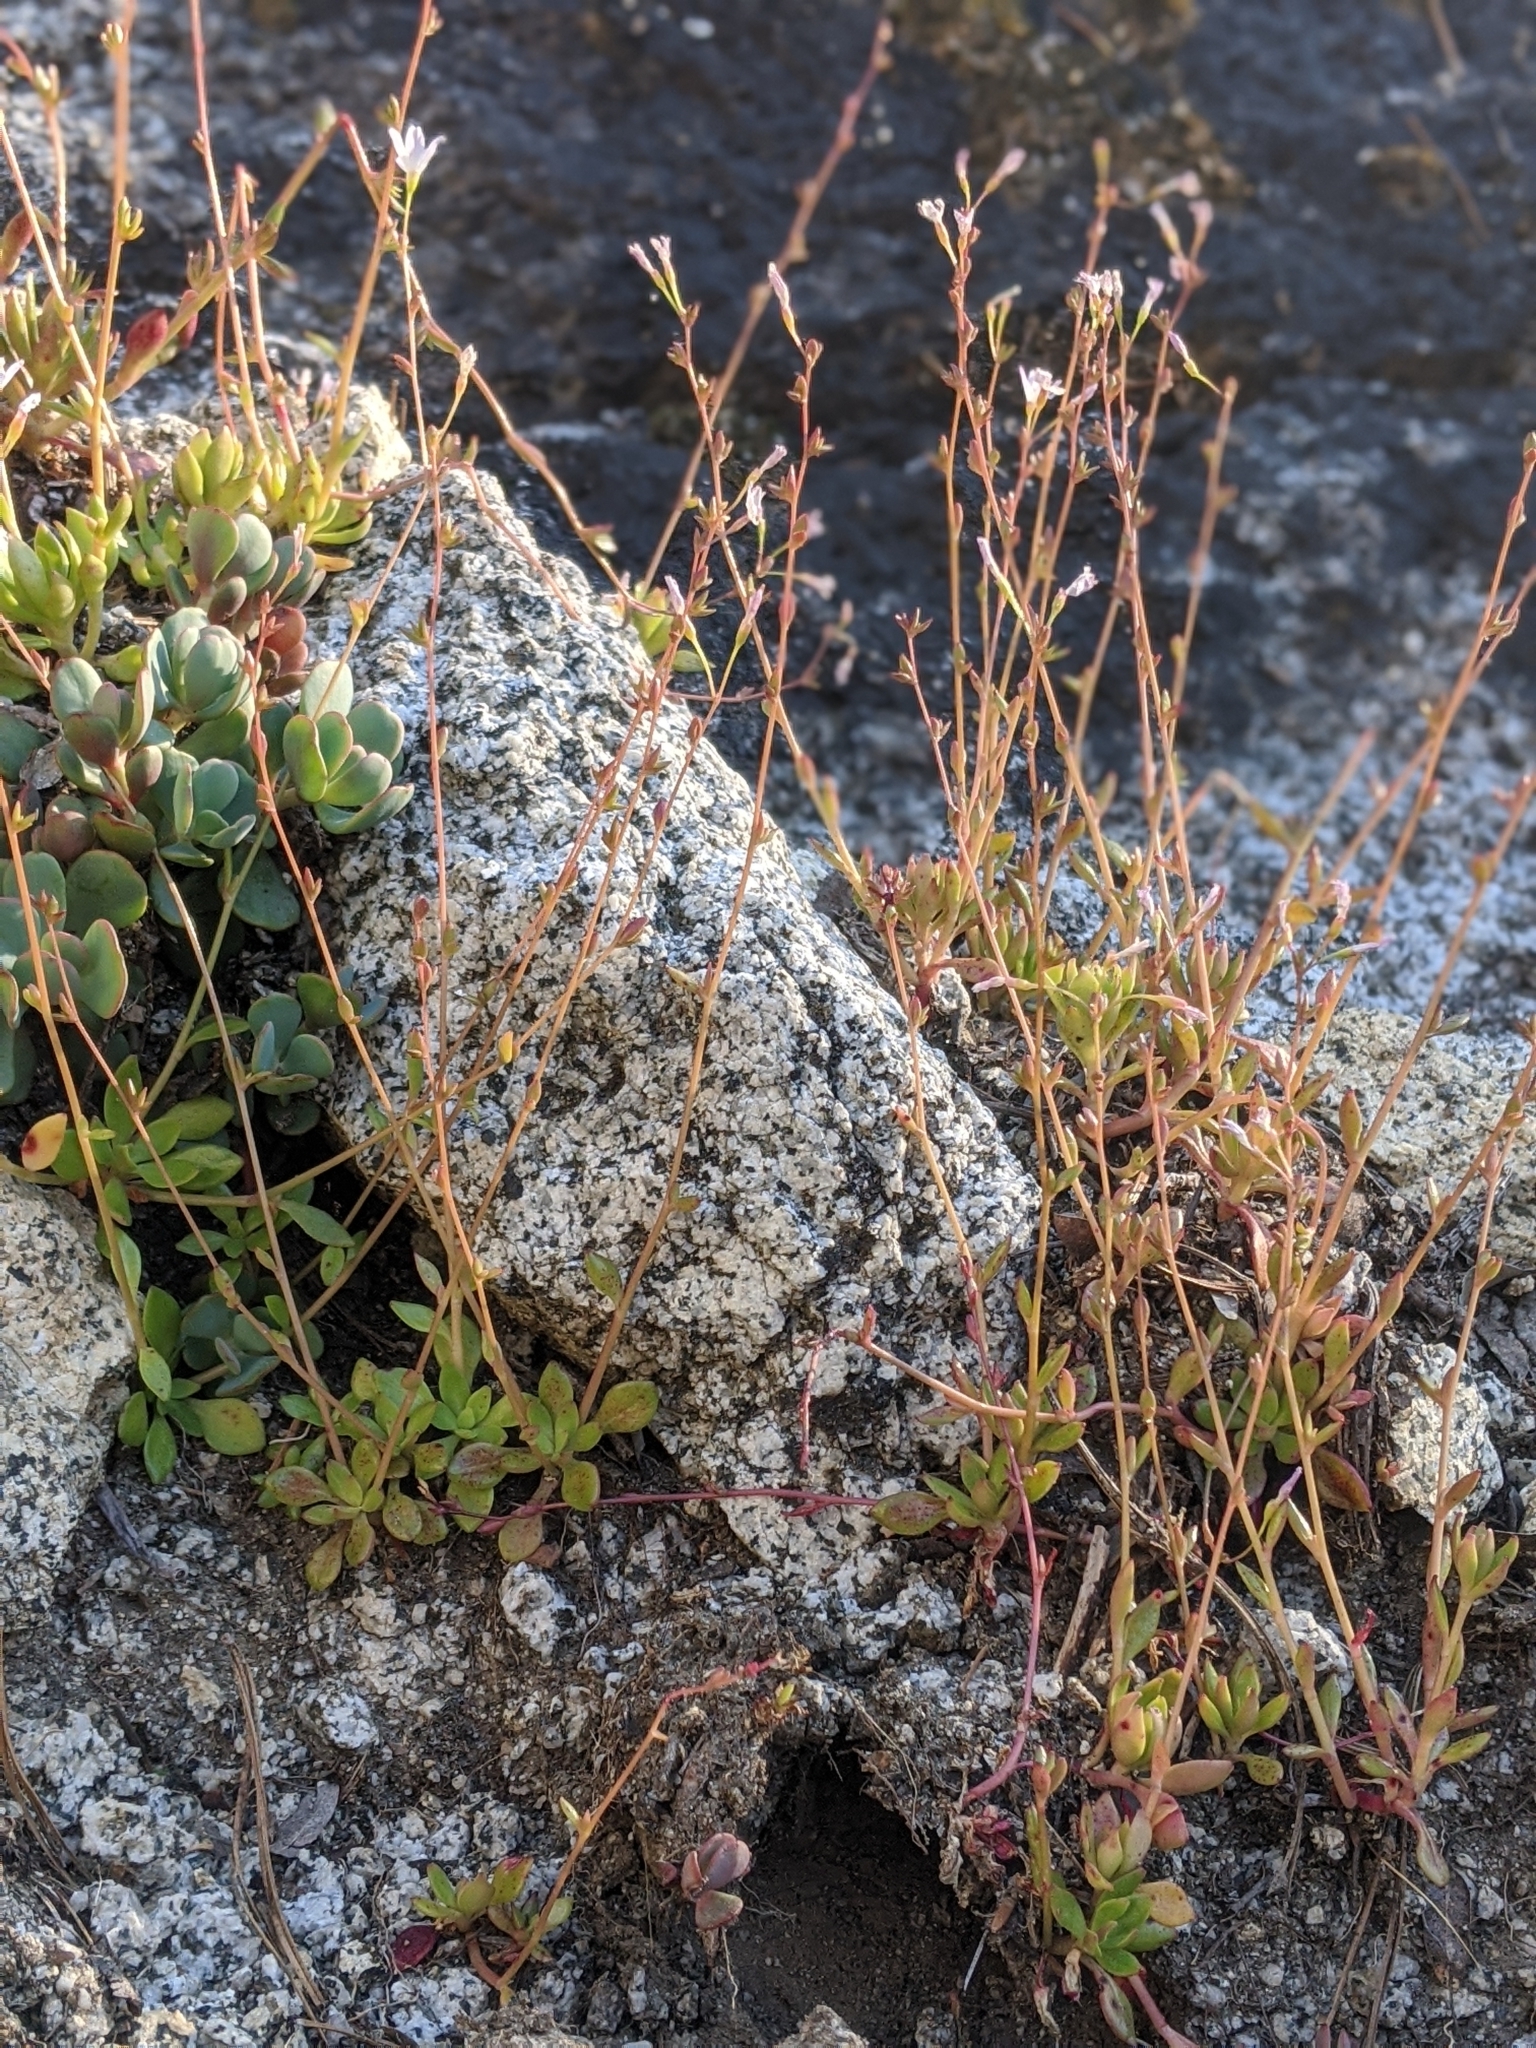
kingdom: Plantae
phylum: Tracheophyta
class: Magnoliopsida
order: Caryophyllales
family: Montiaceae
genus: Montia
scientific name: Montia parvifolia
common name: Small-leaved blinks
